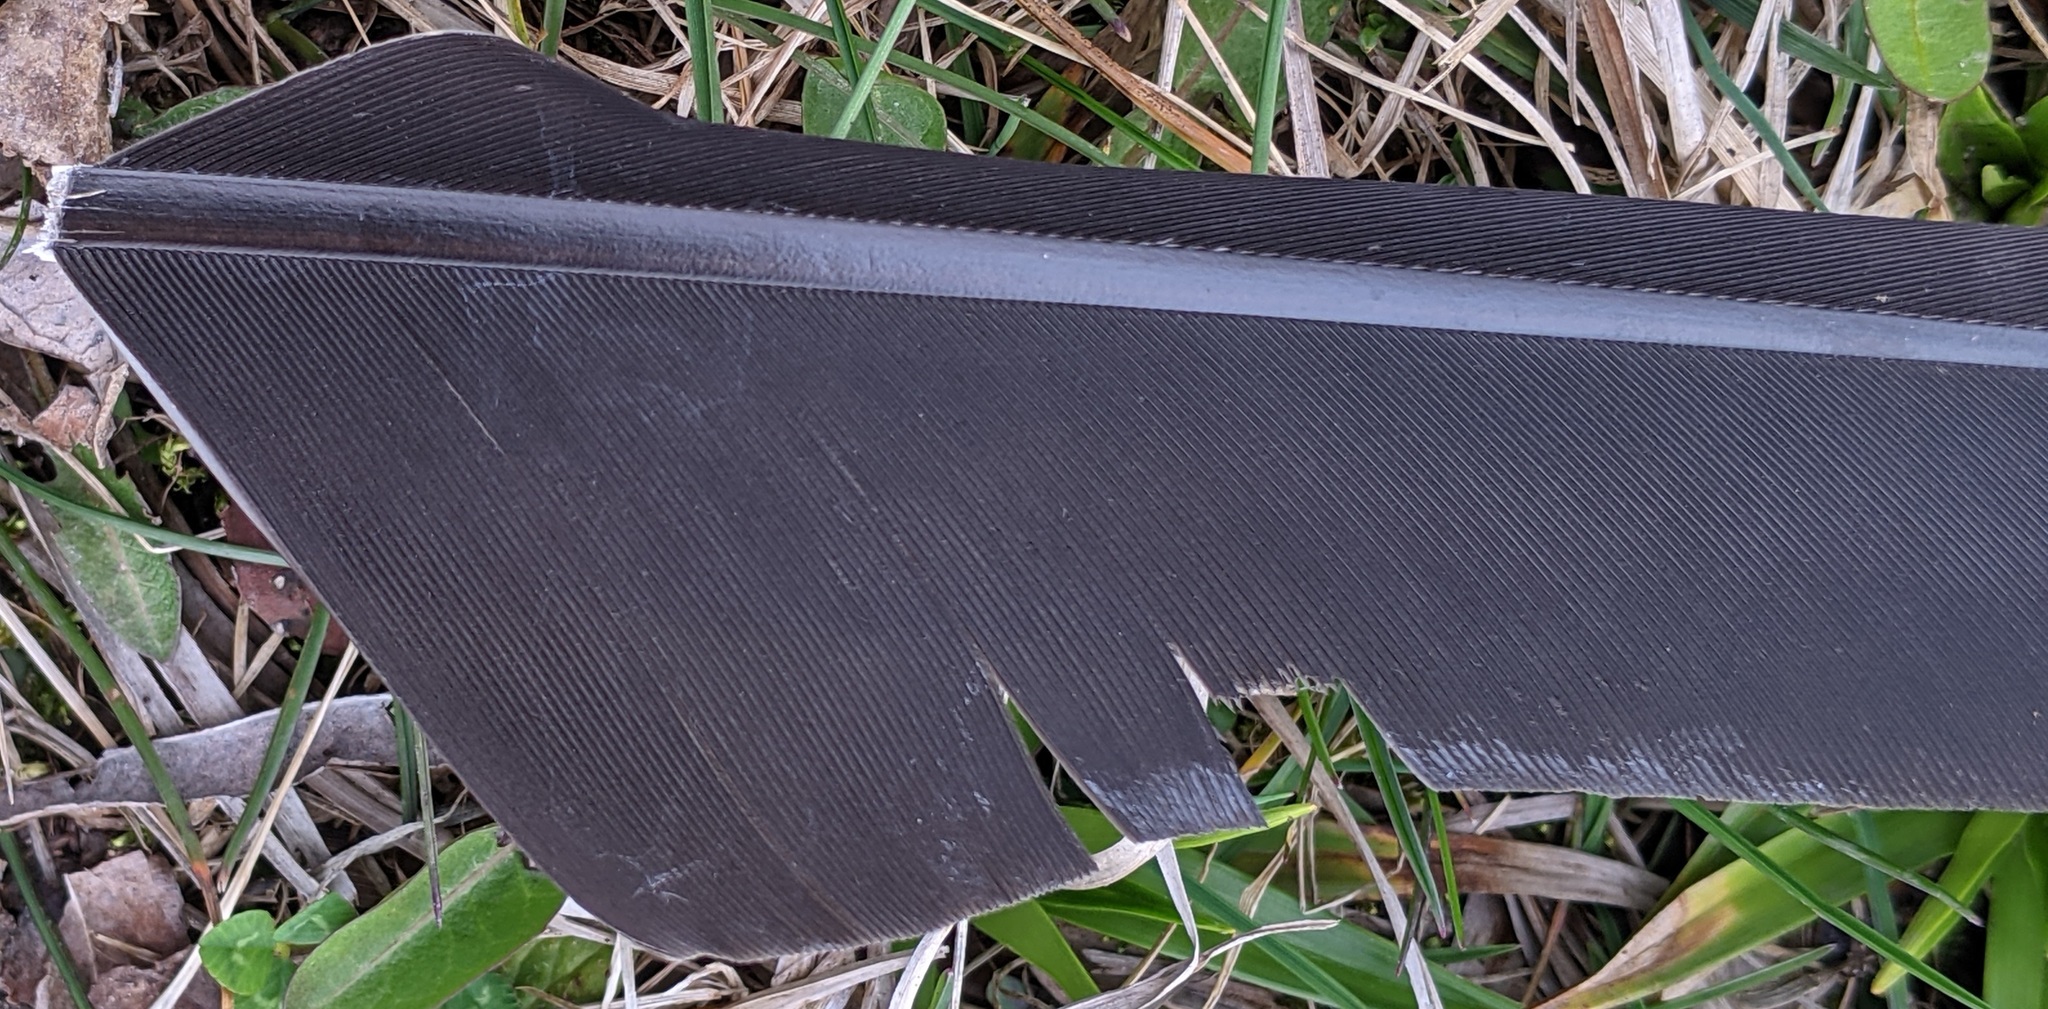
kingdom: Animalia
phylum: Chordata
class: Aves
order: Anseriformes
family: Anatidae
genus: Branta
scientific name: Branta canadensis
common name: Canada goose
